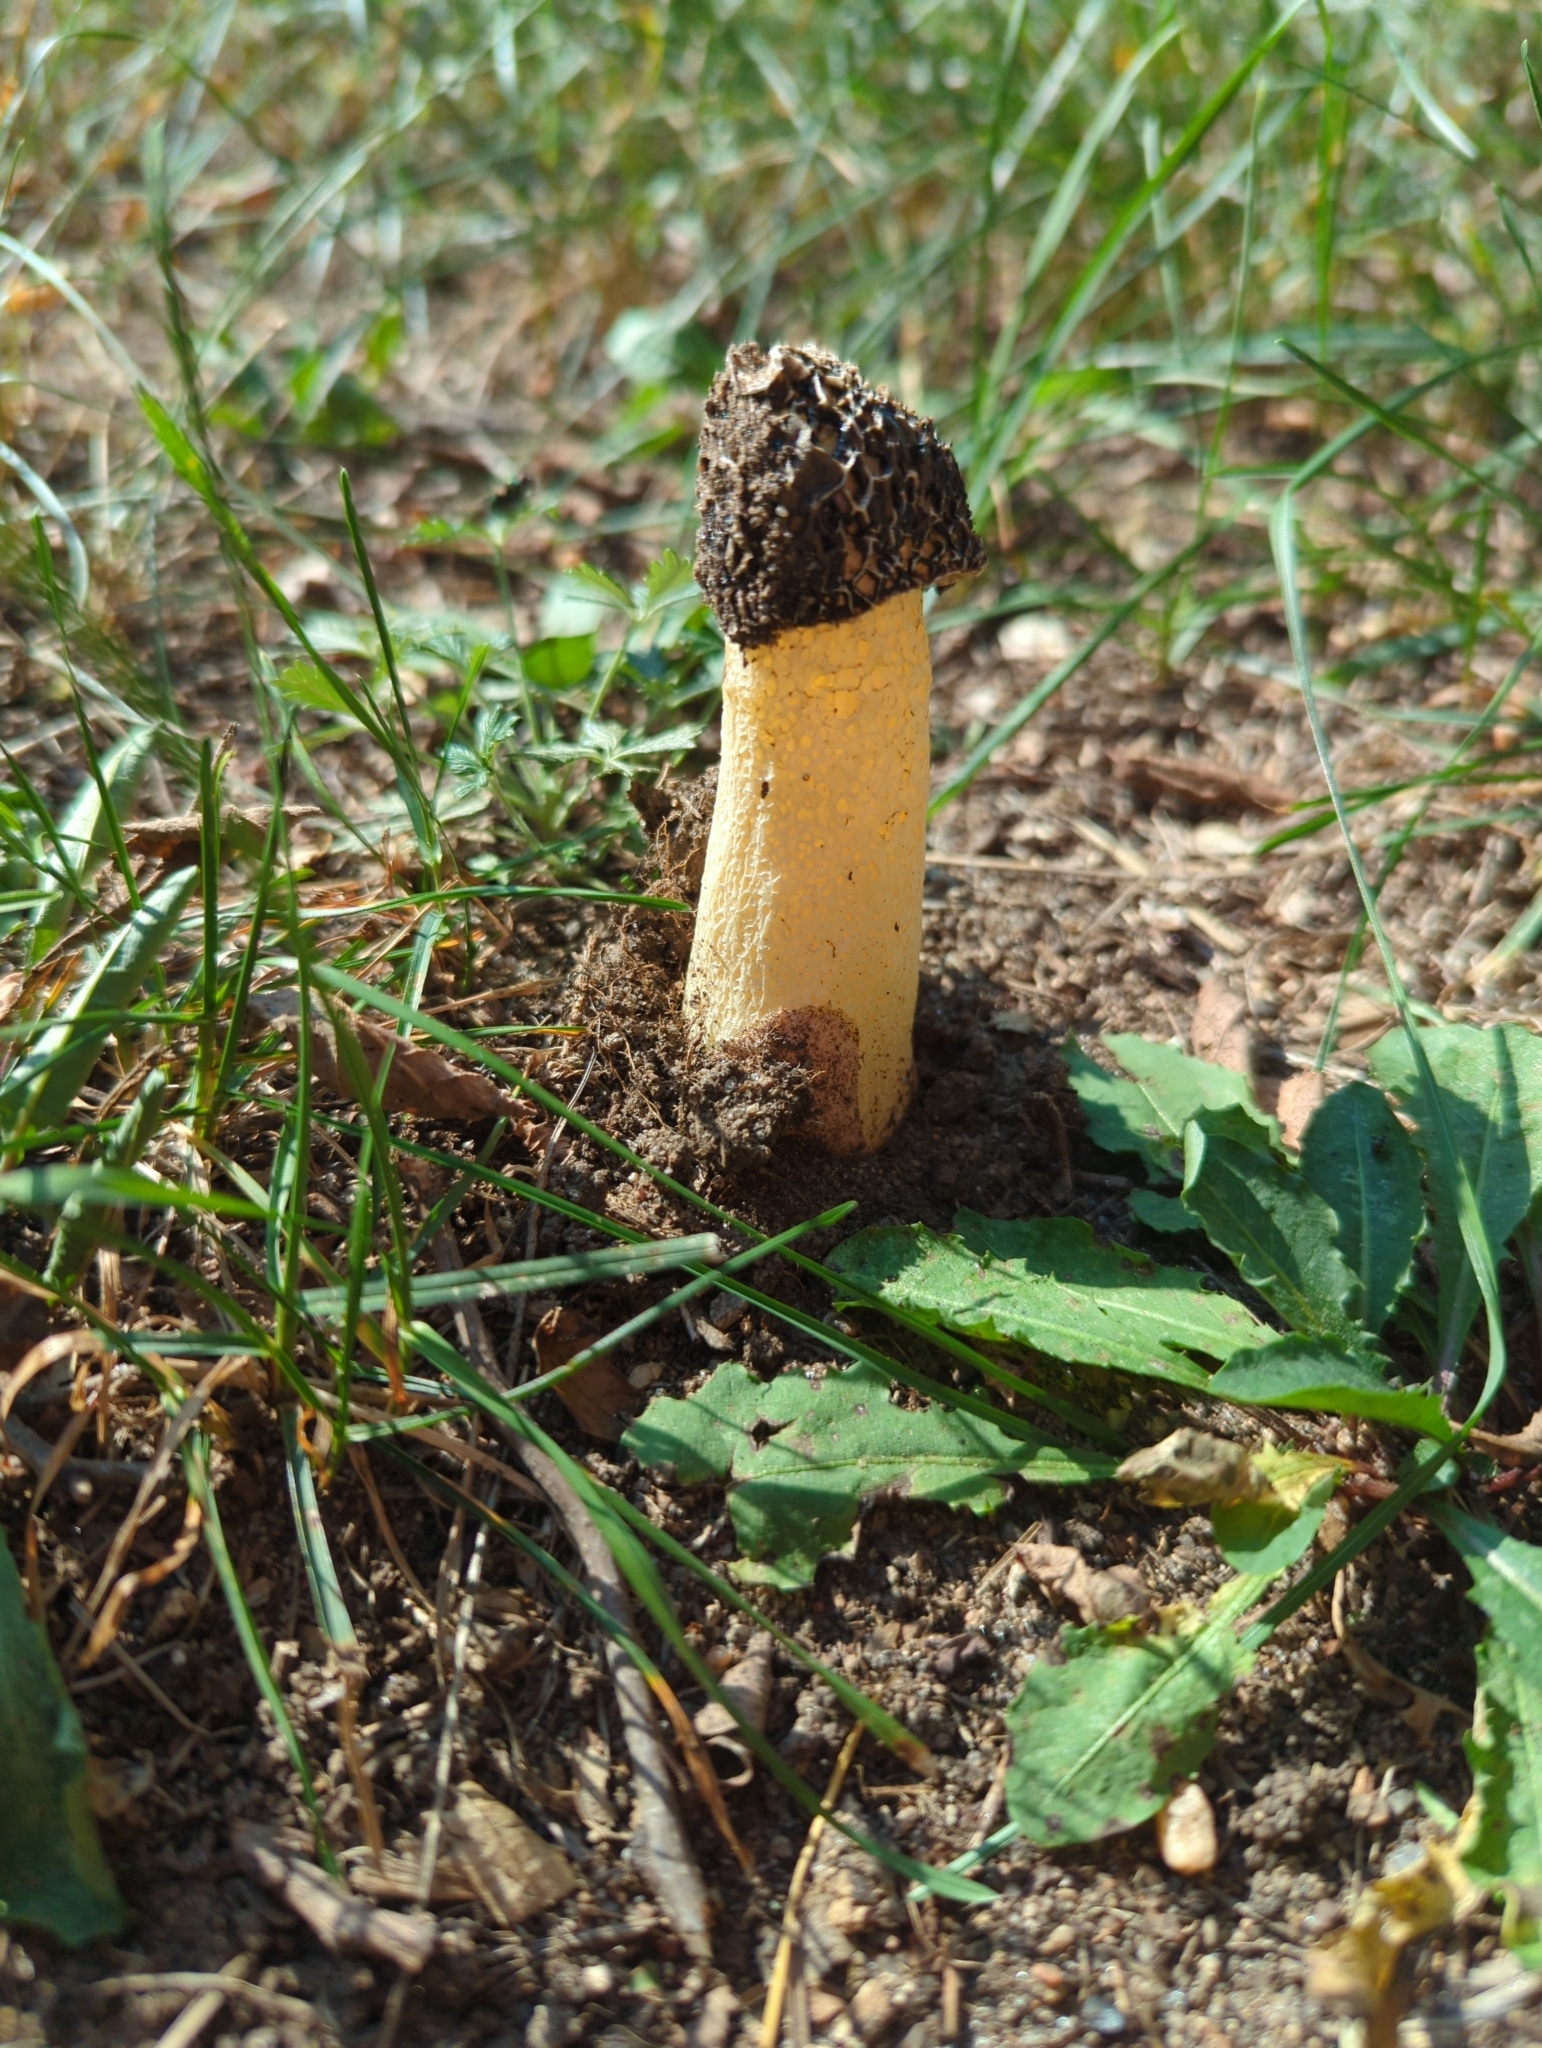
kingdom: Fungi
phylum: Basidiomycota
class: Agaricomycetes
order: Phallales
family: Phallaceae
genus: Phallus
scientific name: Phallus impudicus
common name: Common stinkhorn
